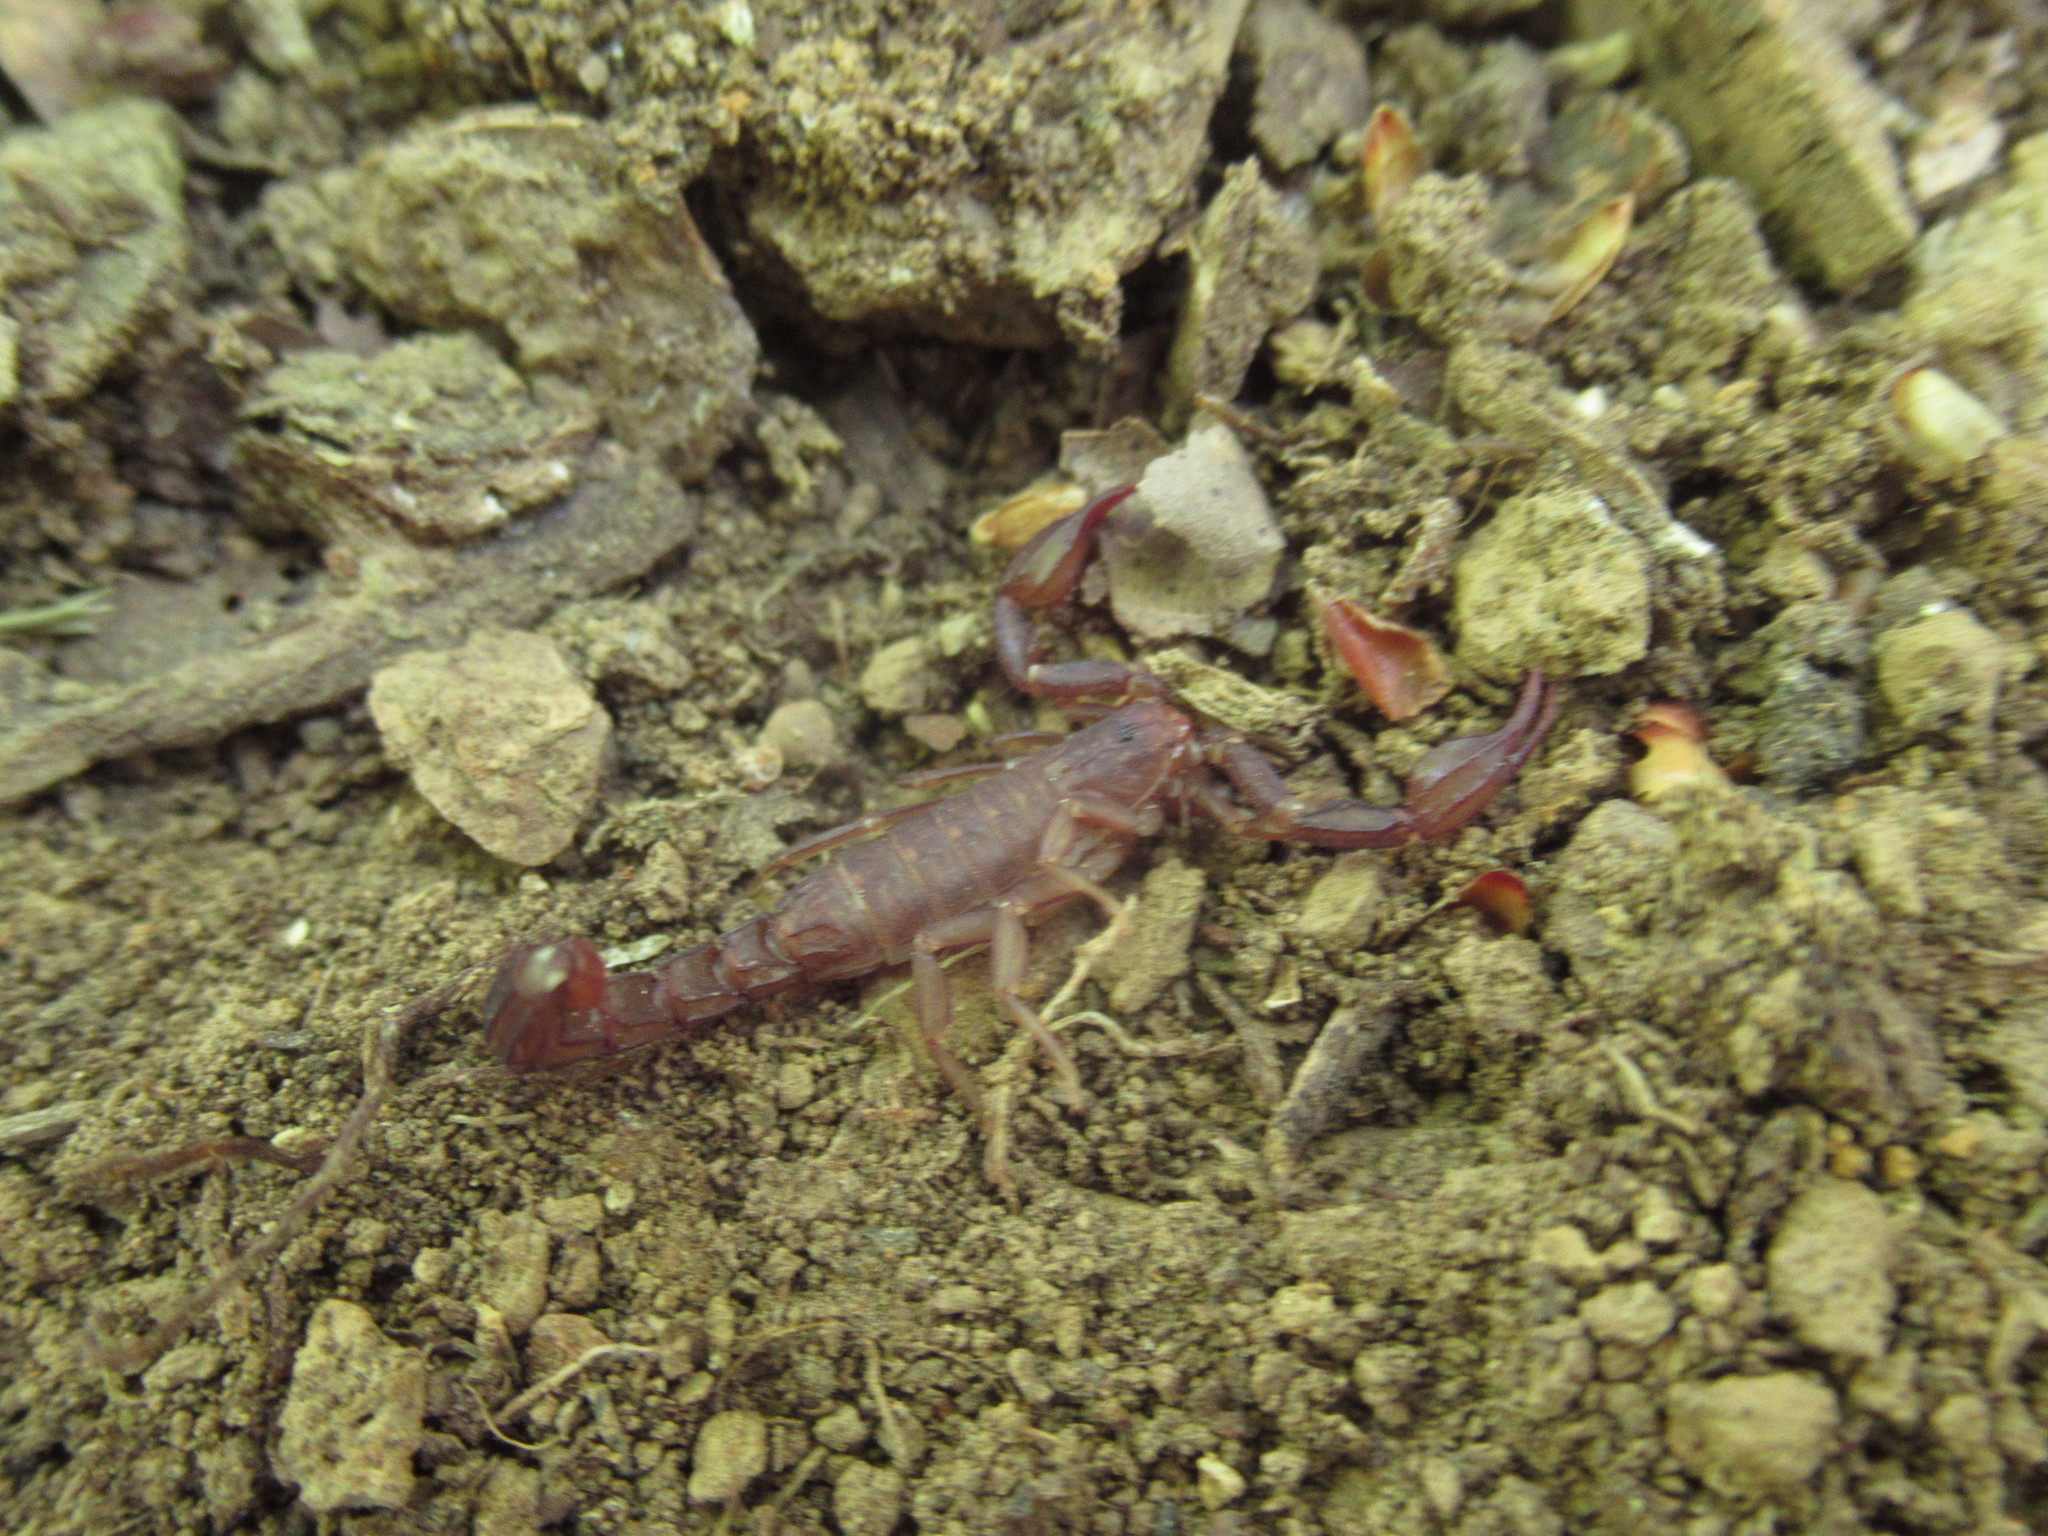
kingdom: Animalia
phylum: Arthropoda
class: Arachnida
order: Scorpiones
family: Vaejovidae
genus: Graemeloweus
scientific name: Graemeloweus iviei
